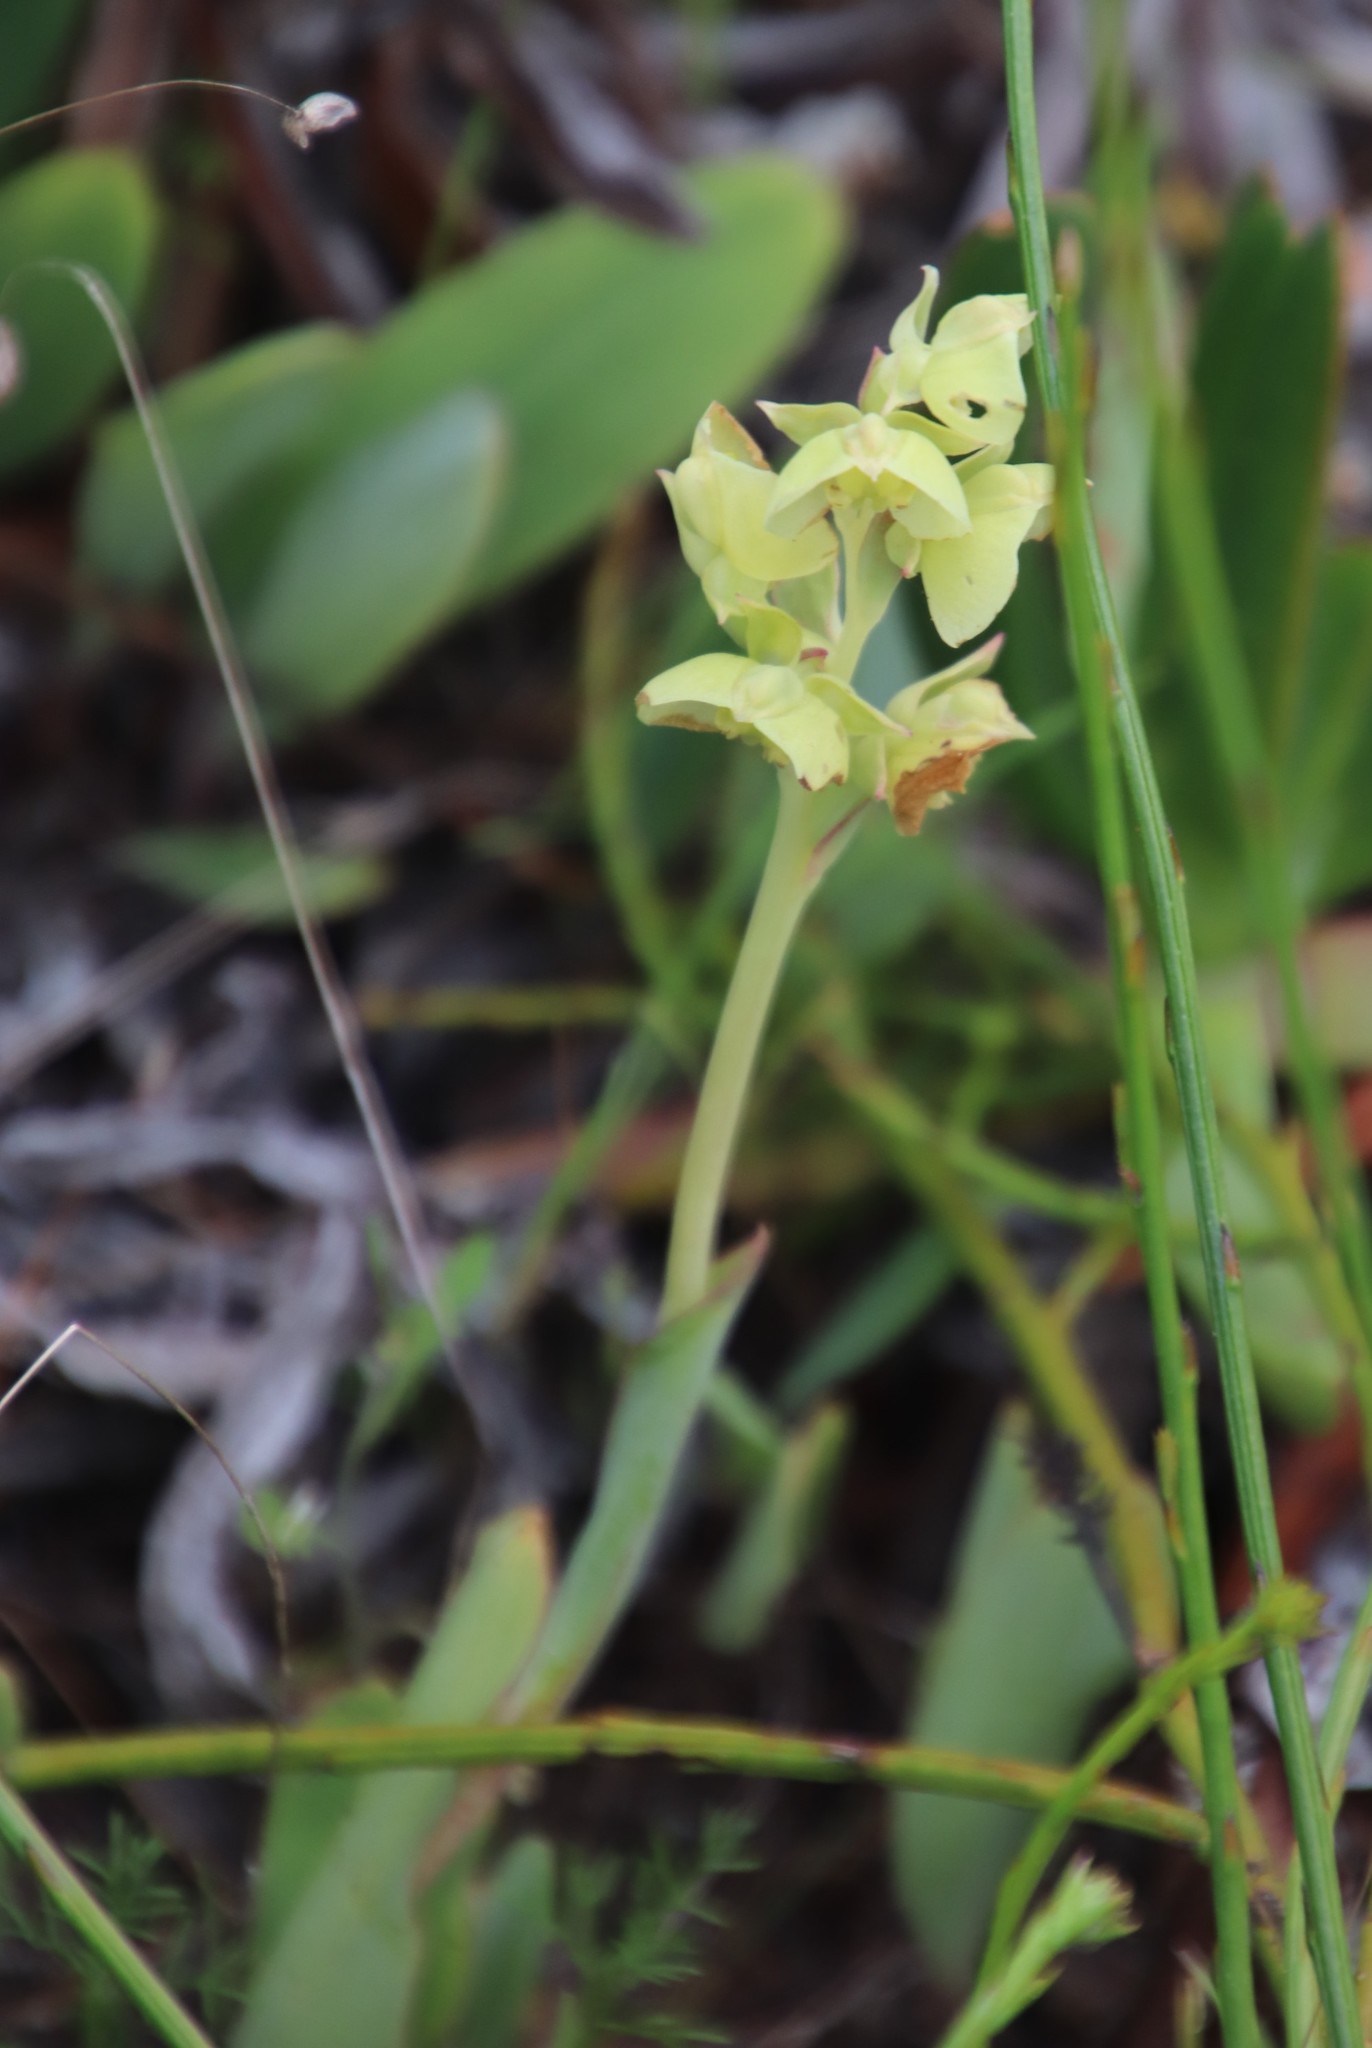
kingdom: Plantae
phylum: Tracheophyta
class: Liliopsida
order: Asparagales
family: Orchidaceae
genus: Pterygodium
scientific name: Pterygodium catholicum
